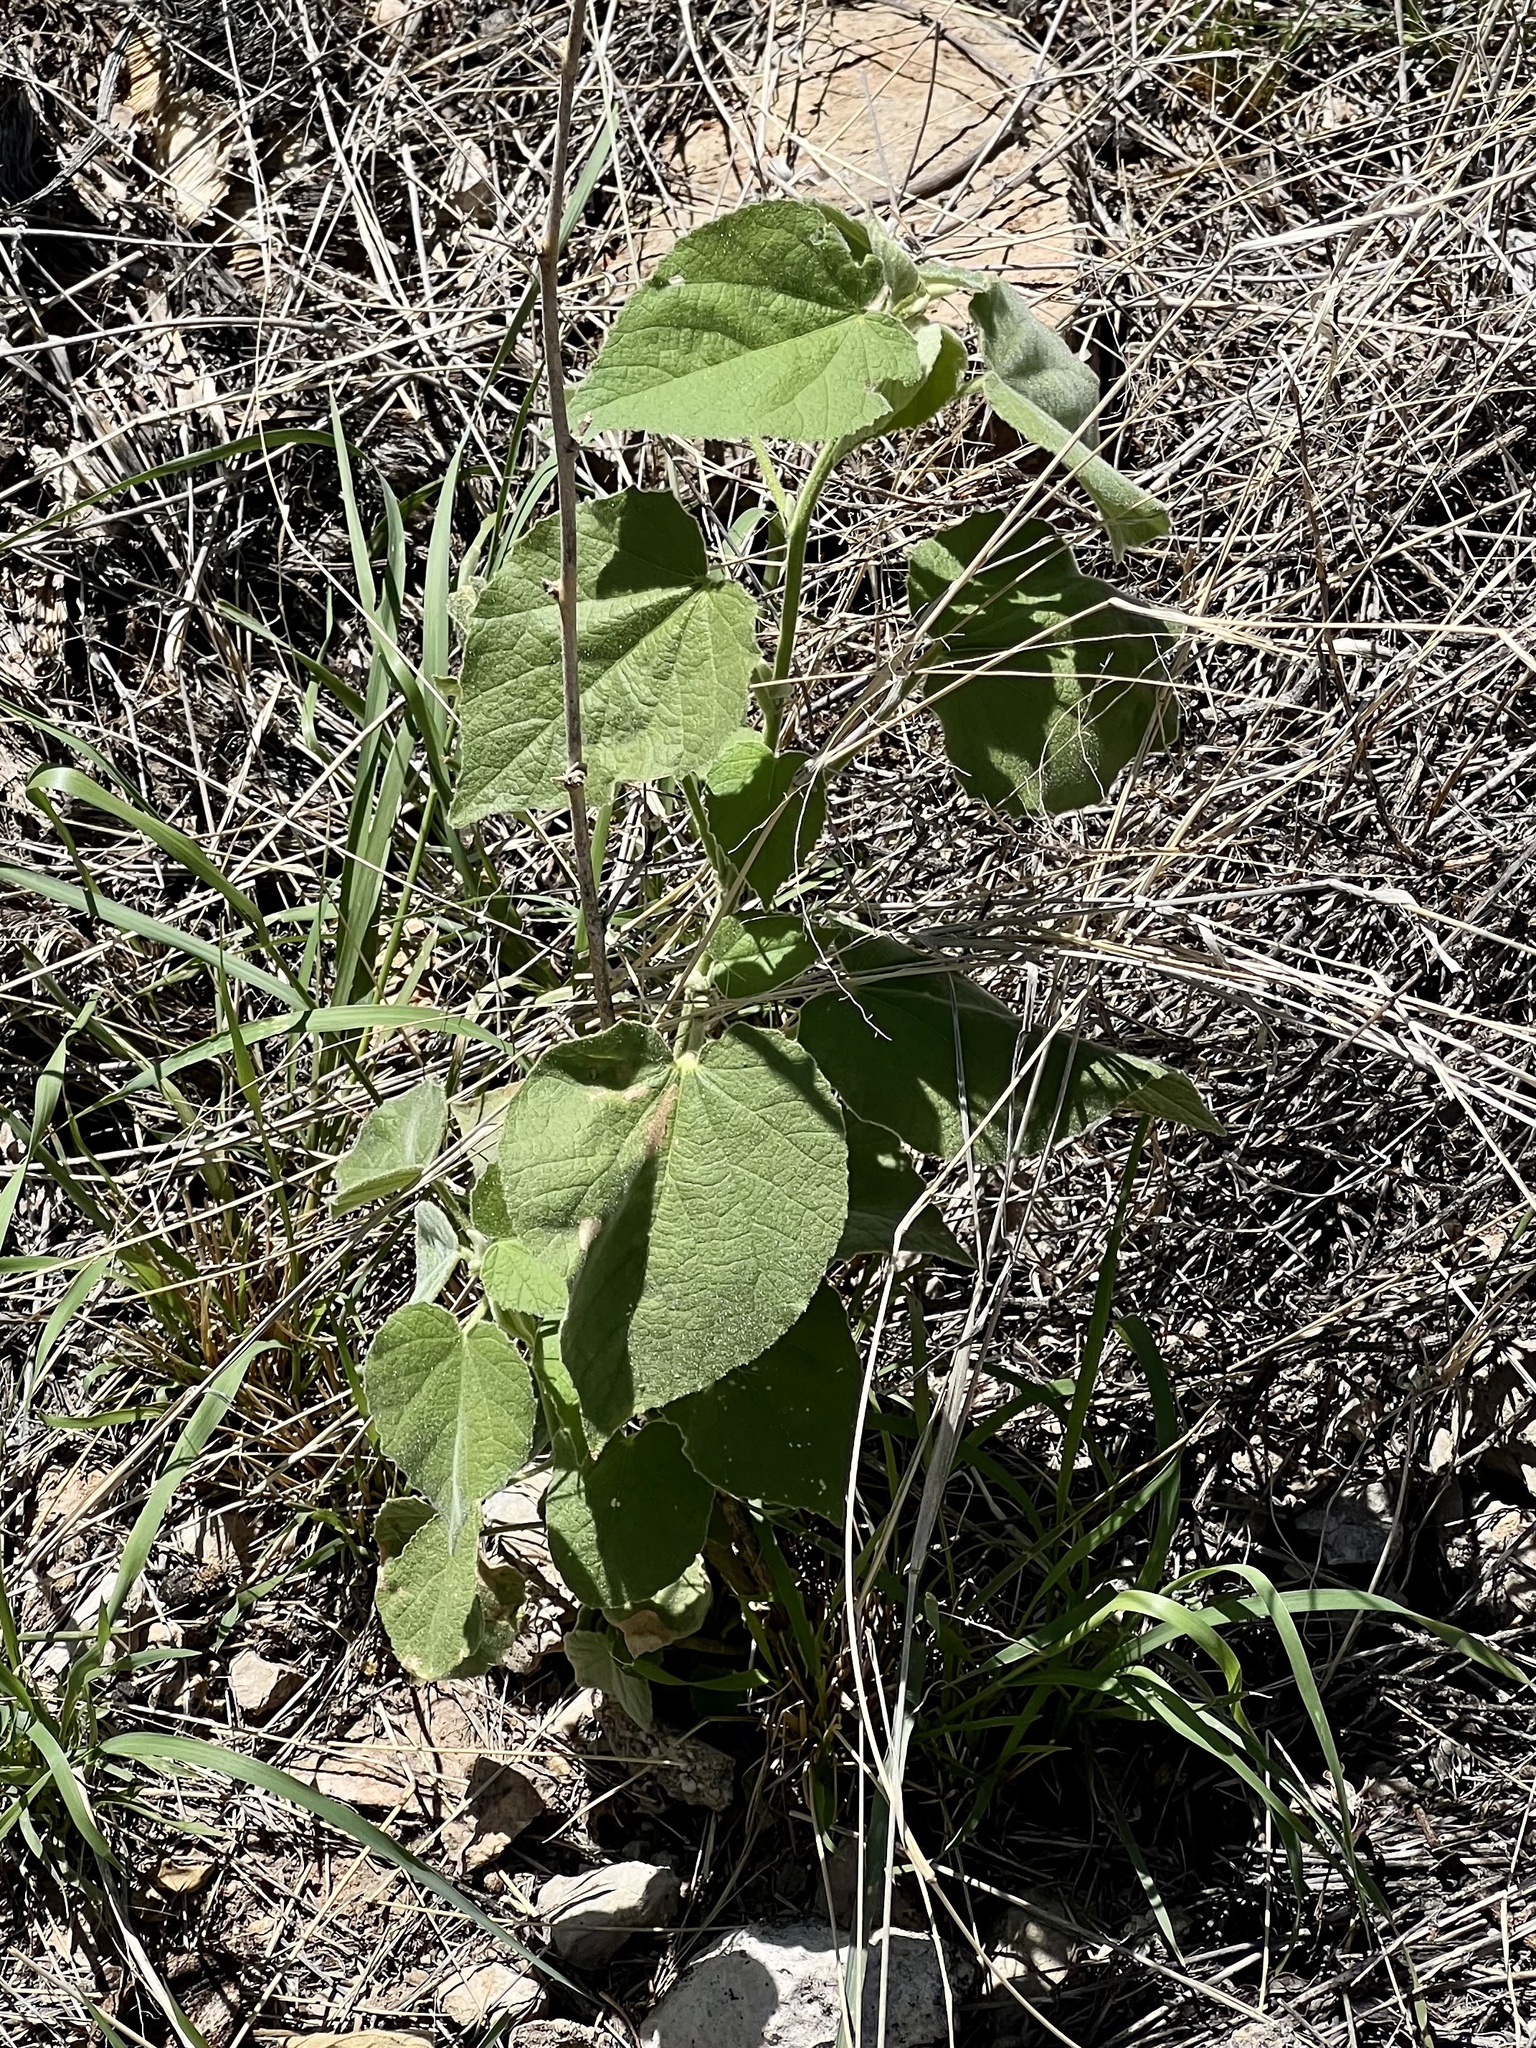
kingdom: Plantae
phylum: Tracheophyta
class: Magnoliopsida
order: Malvales
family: Malvaceae
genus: Abutilon
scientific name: Abutilon abutiloides
